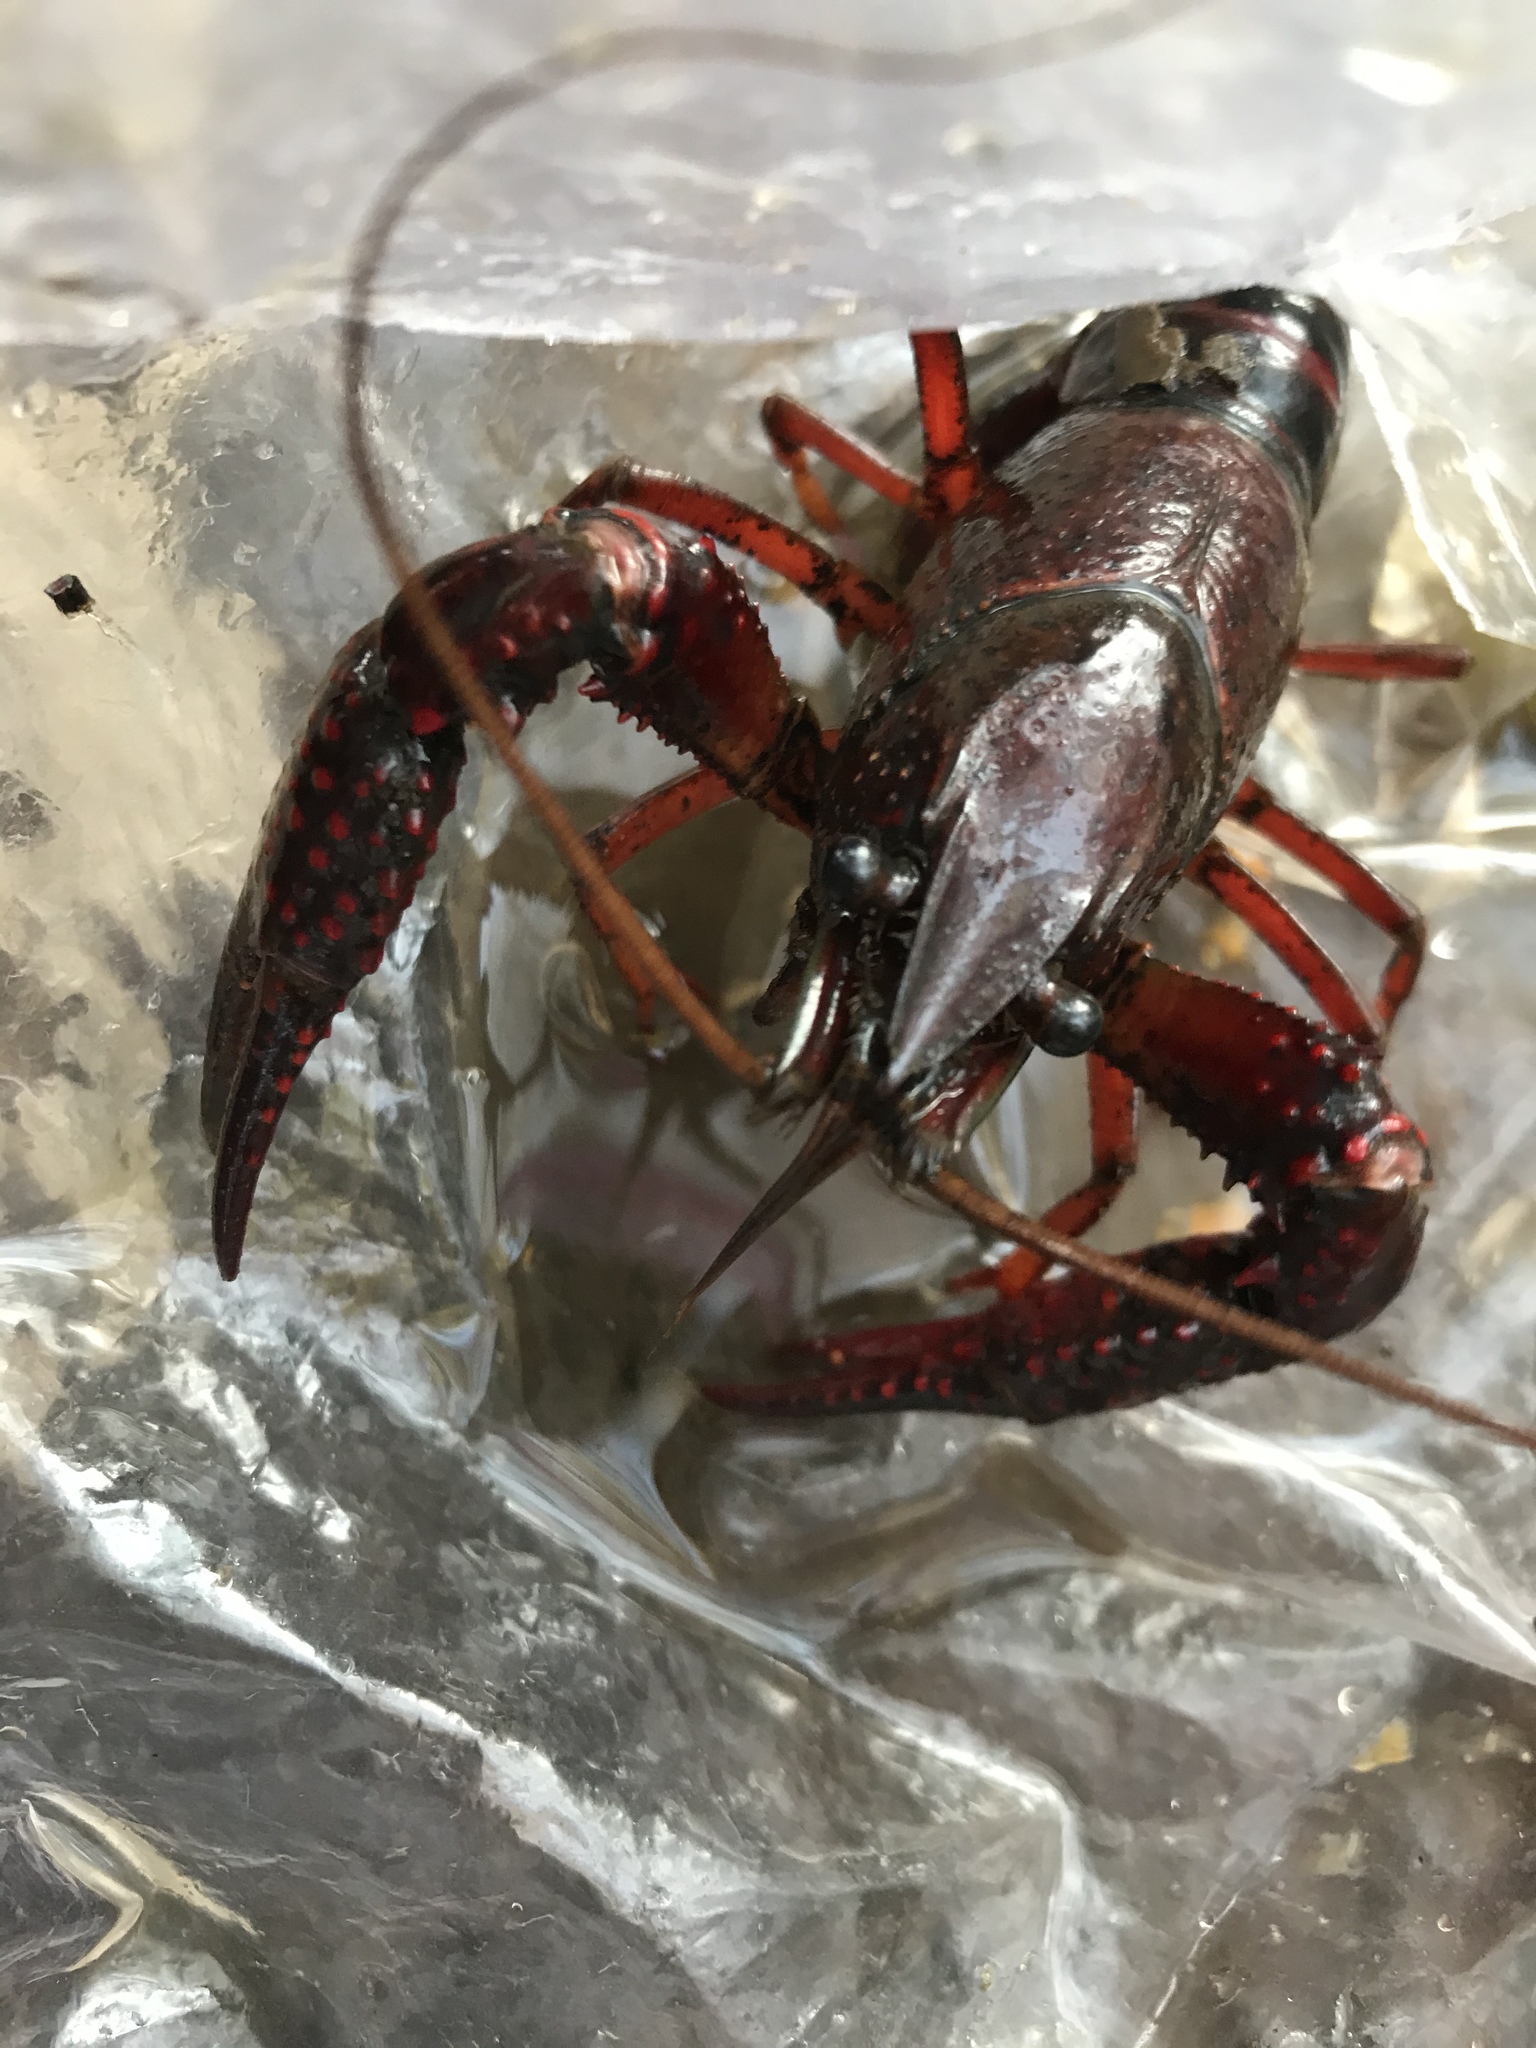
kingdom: Animalia
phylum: Arthropoda
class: Malacostraca
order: Decapoda
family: Cambaridae
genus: Procambarus
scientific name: Procambarus clarkii
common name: Red swamp crayfish
